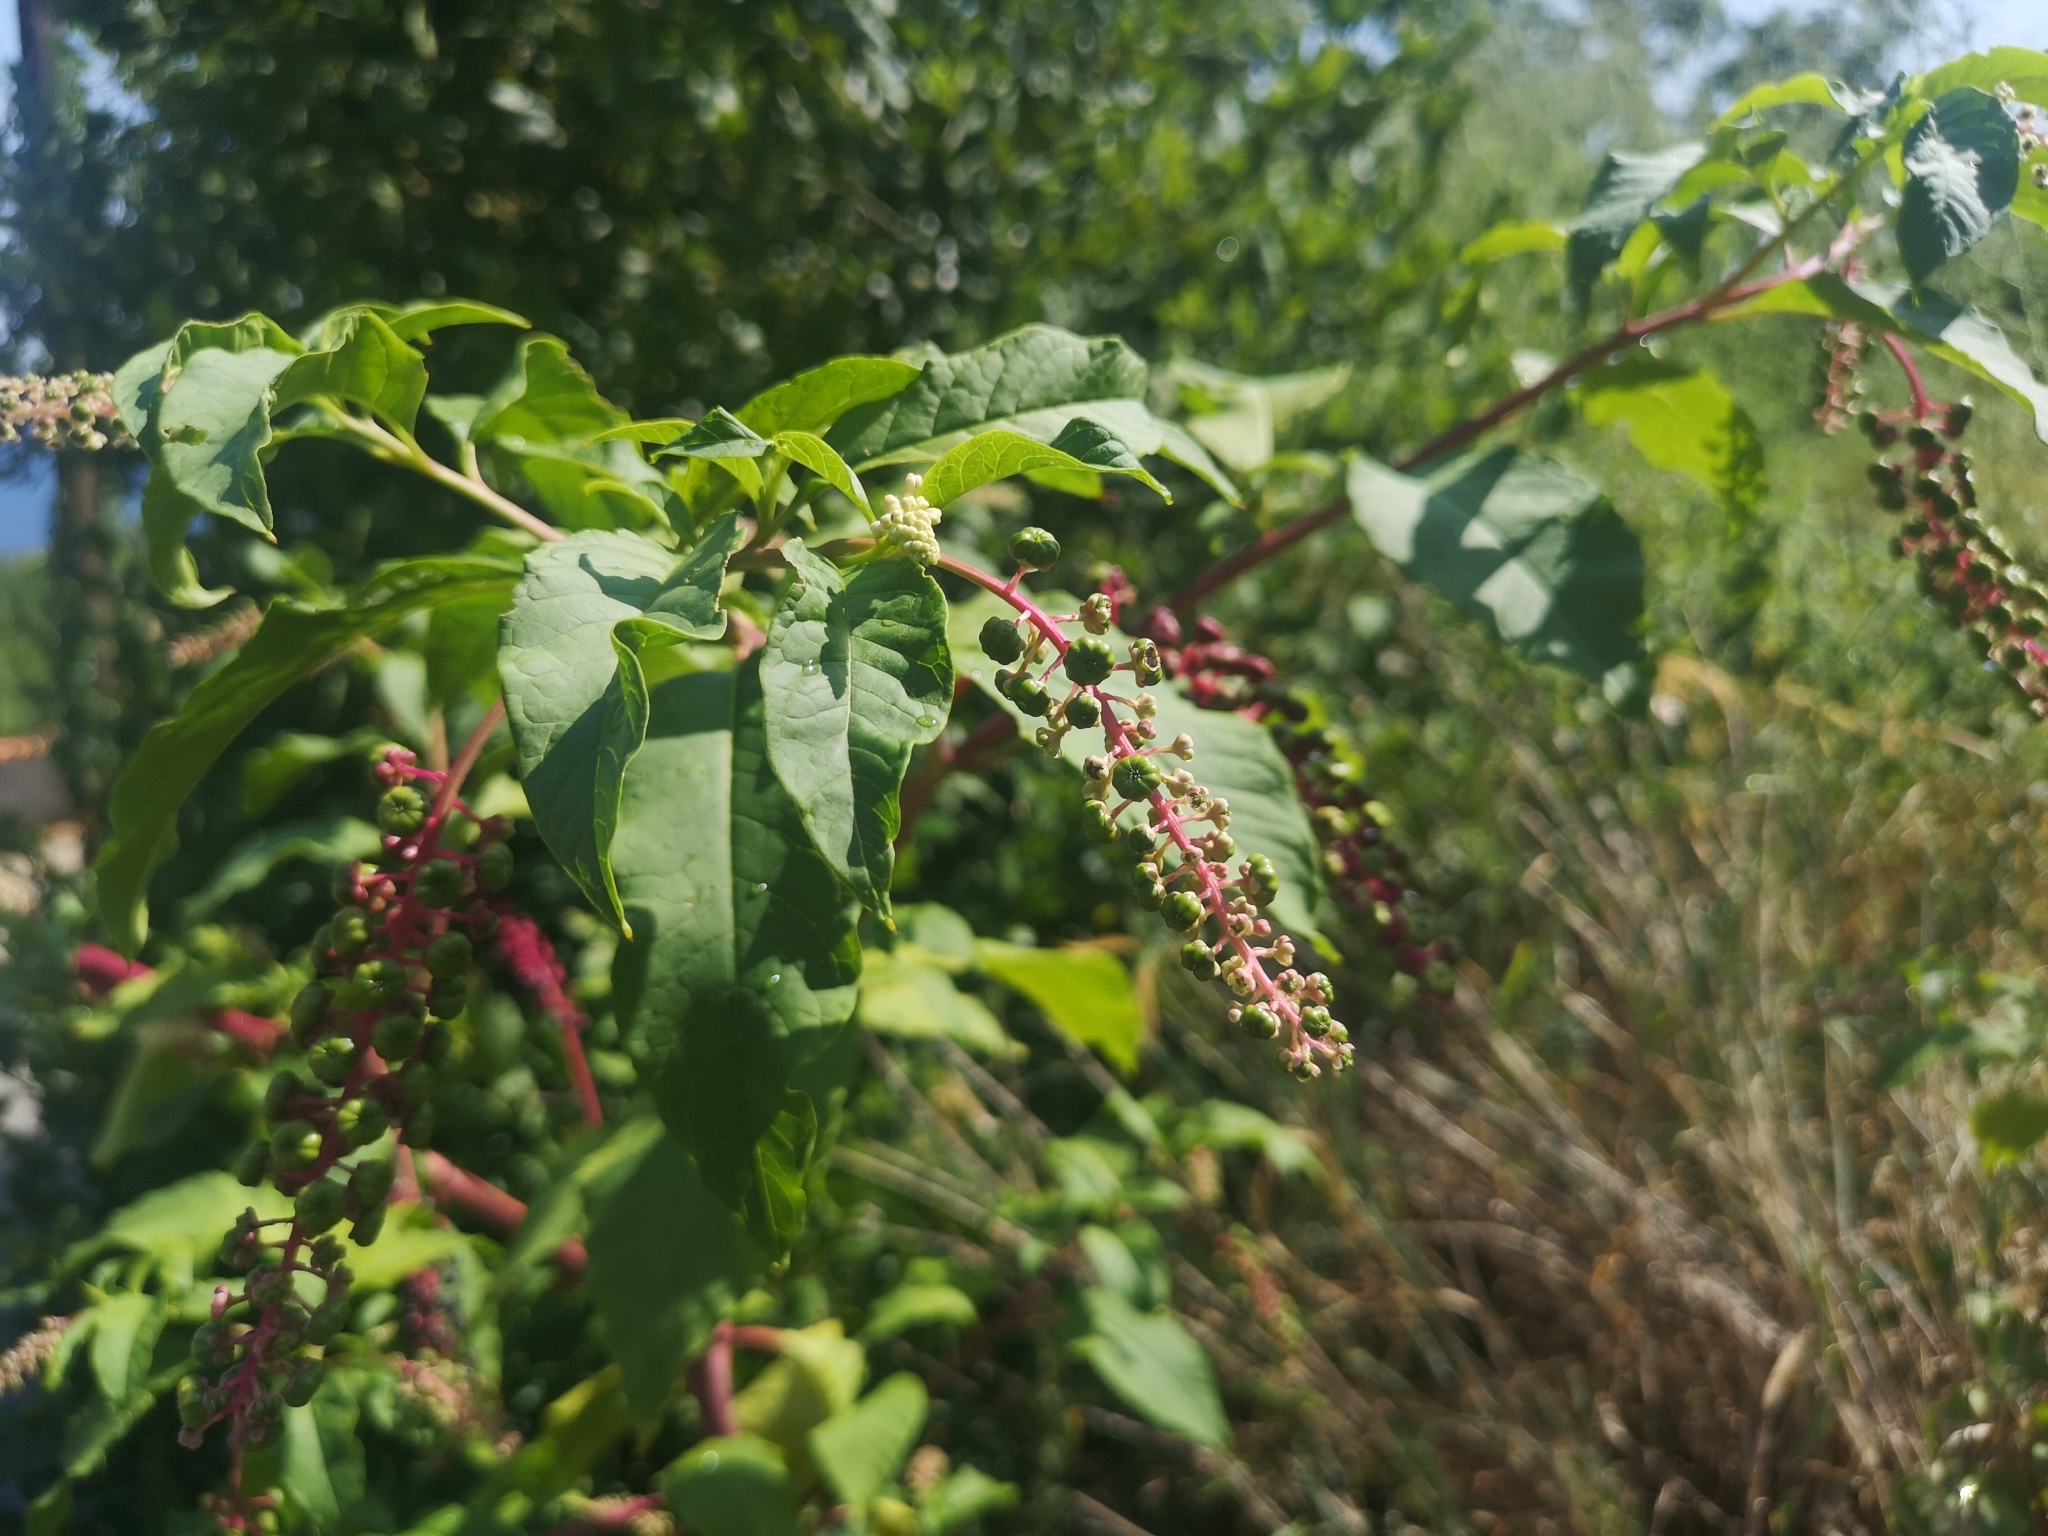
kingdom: Plantae
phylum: Tracheophyta
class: Magnoliopsida
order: Caryophyllales
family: Phytolaccaceae
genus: Phytolacca
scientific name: Phytolacca americana
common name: American pokeweed
